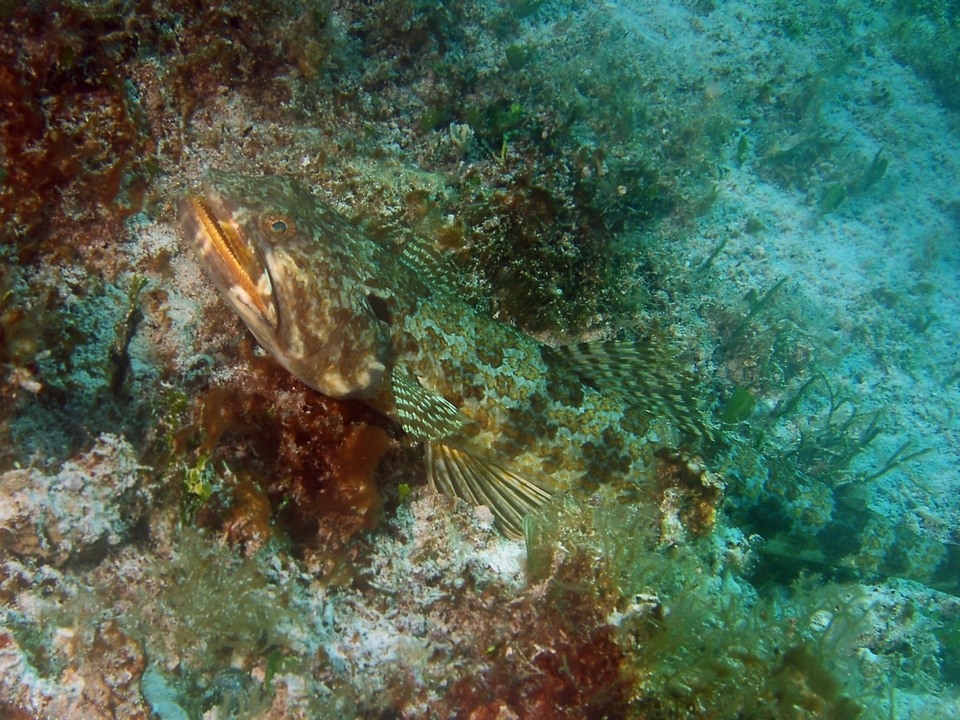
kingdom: Animalia
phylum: Chordata
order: Aulopiformes
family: Synodontidae
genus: Synodus
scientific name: Synodus intermedius
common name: Sand diver
